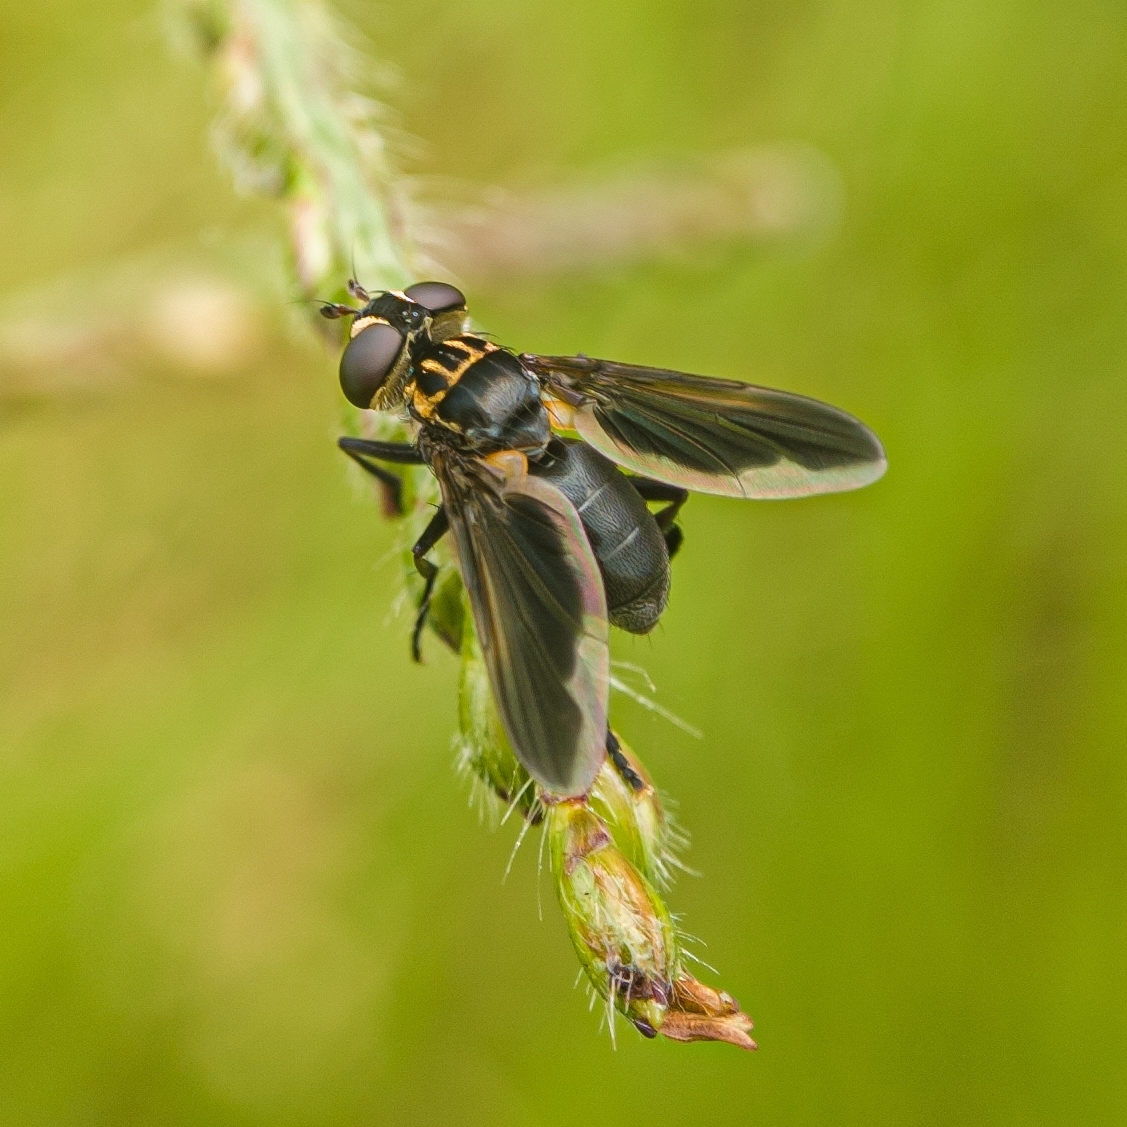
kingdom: Animalia
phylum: Arthropoda
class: Insecta
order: Diptera
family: Tachinidae
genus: Trichopoda
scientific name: Trichopoda pictipennis
